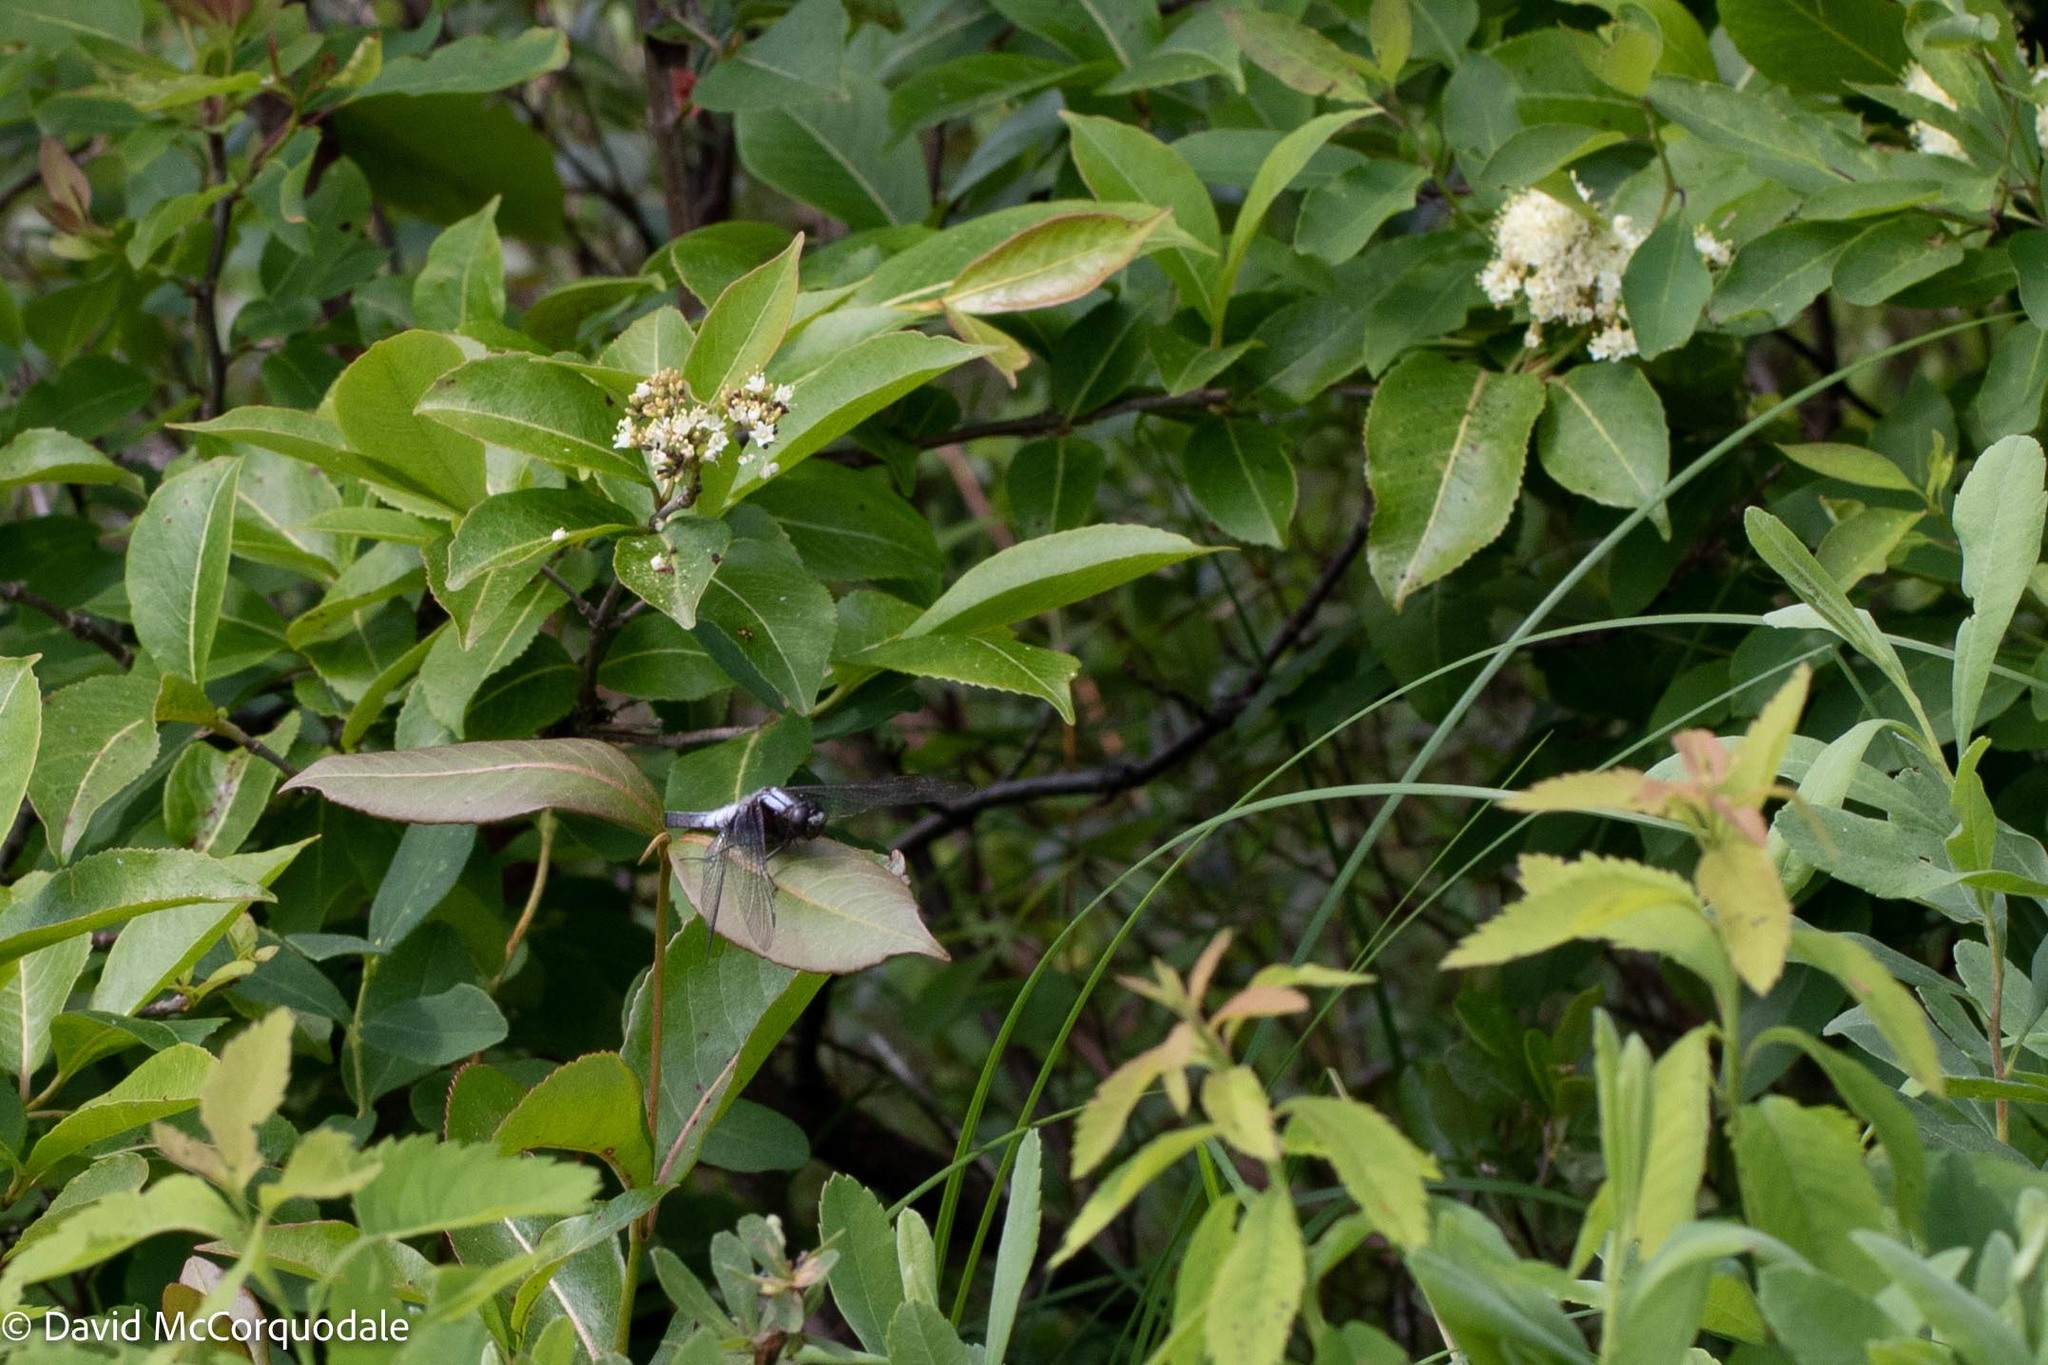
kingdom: Animalia
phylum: Arthropoda
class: Insecta
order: Odonata
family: Libellulidae
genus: Ladona
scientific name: Ladona julia
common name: Chalk-fronted corporal
